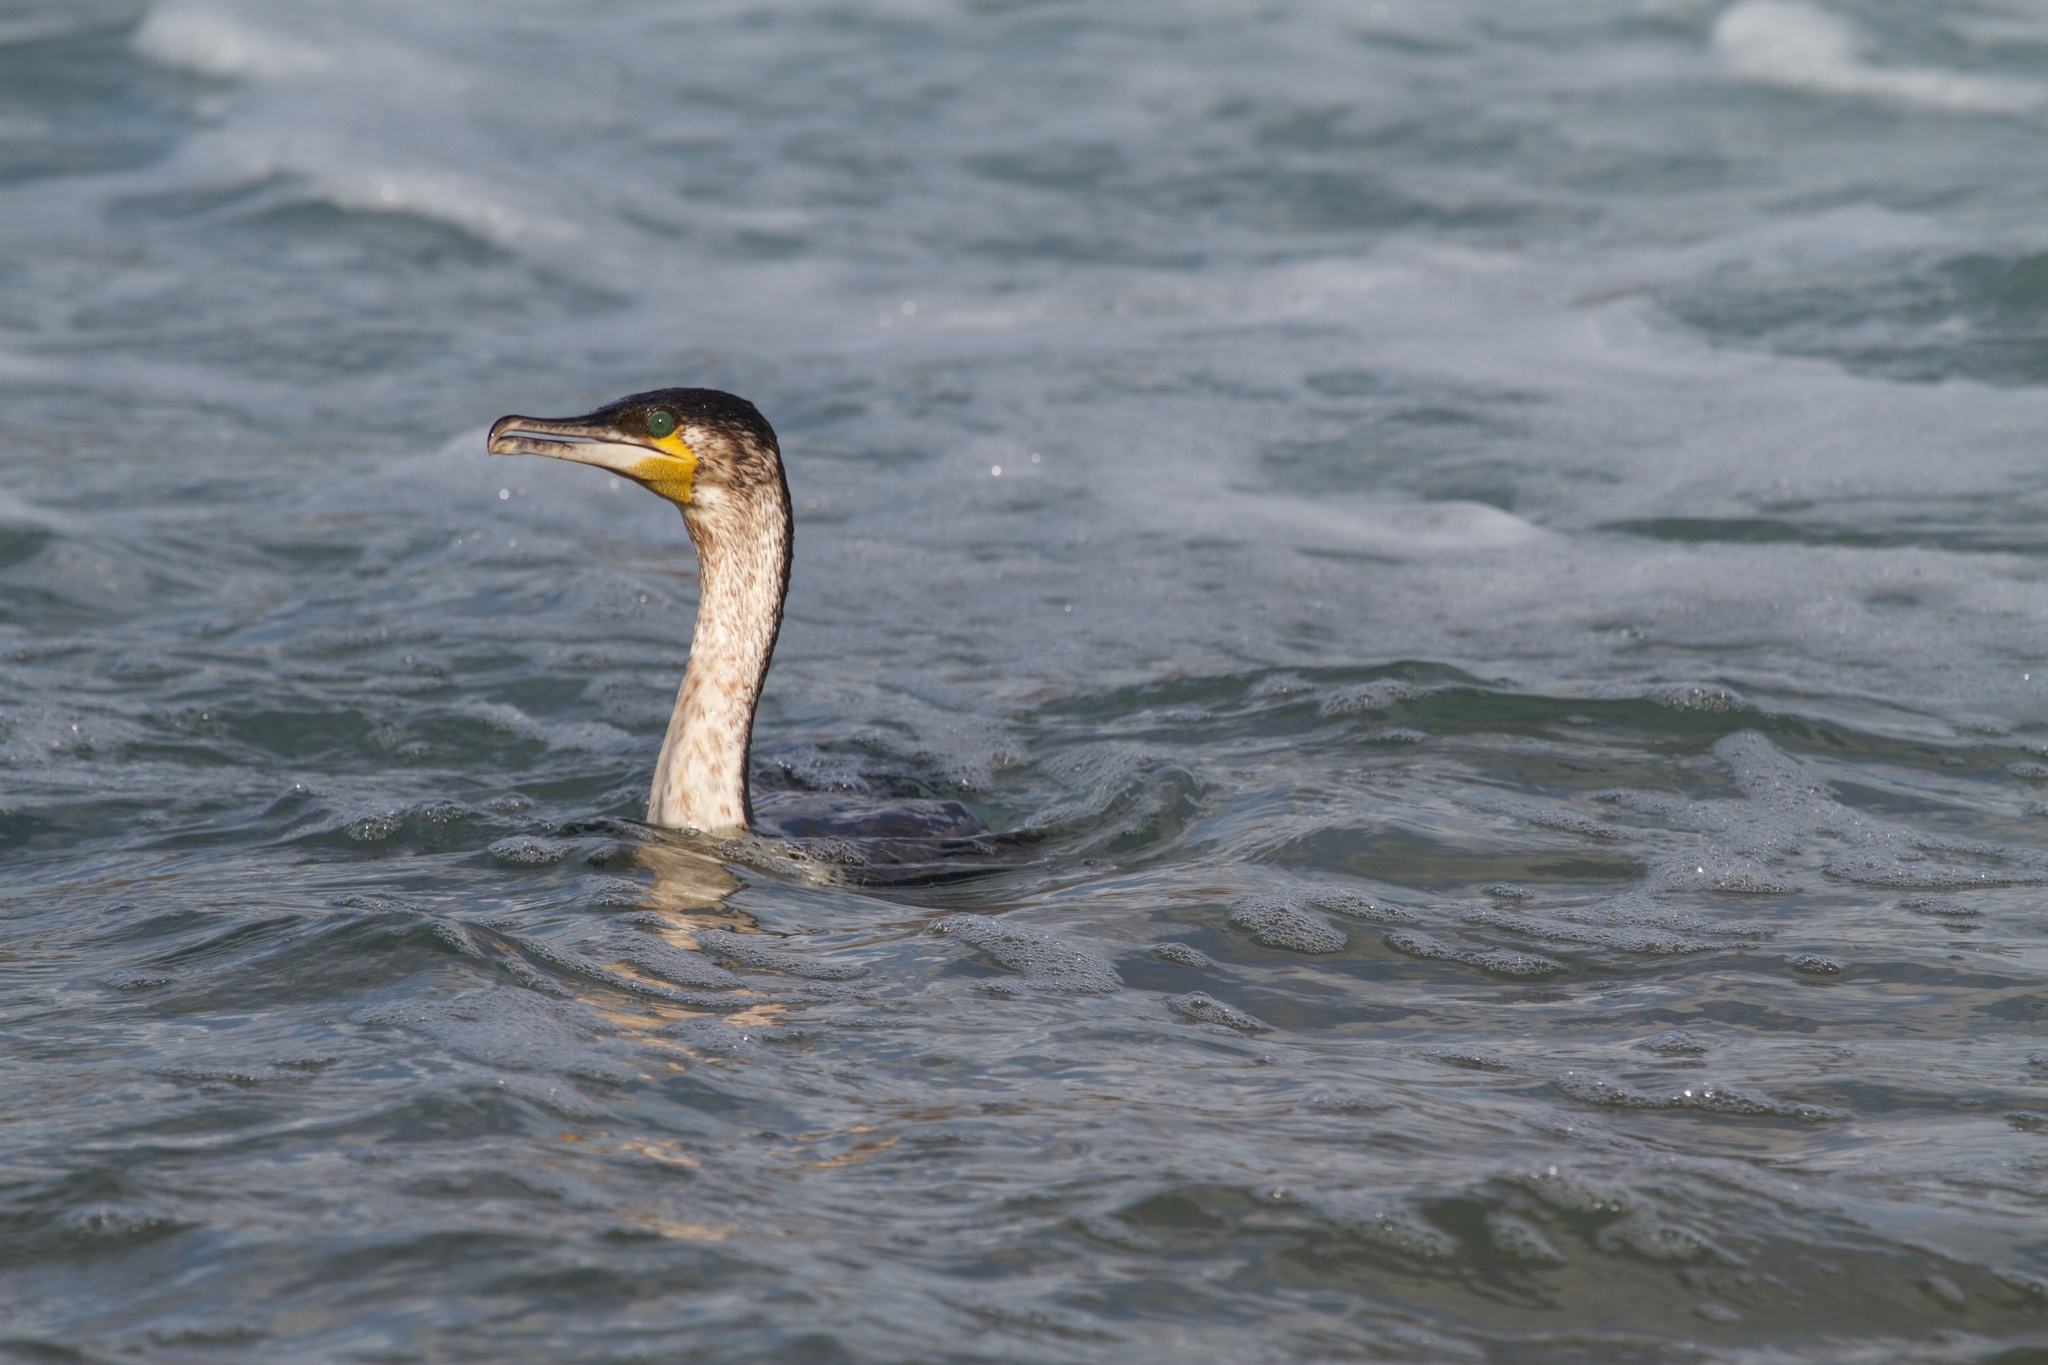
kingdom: Animalia
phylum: Chordata
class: Aves
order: Suliformes
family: Phalacrocoracidae
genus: Phalacrocorax
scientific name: Phalacrocorax carbo
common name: Great cormorant
